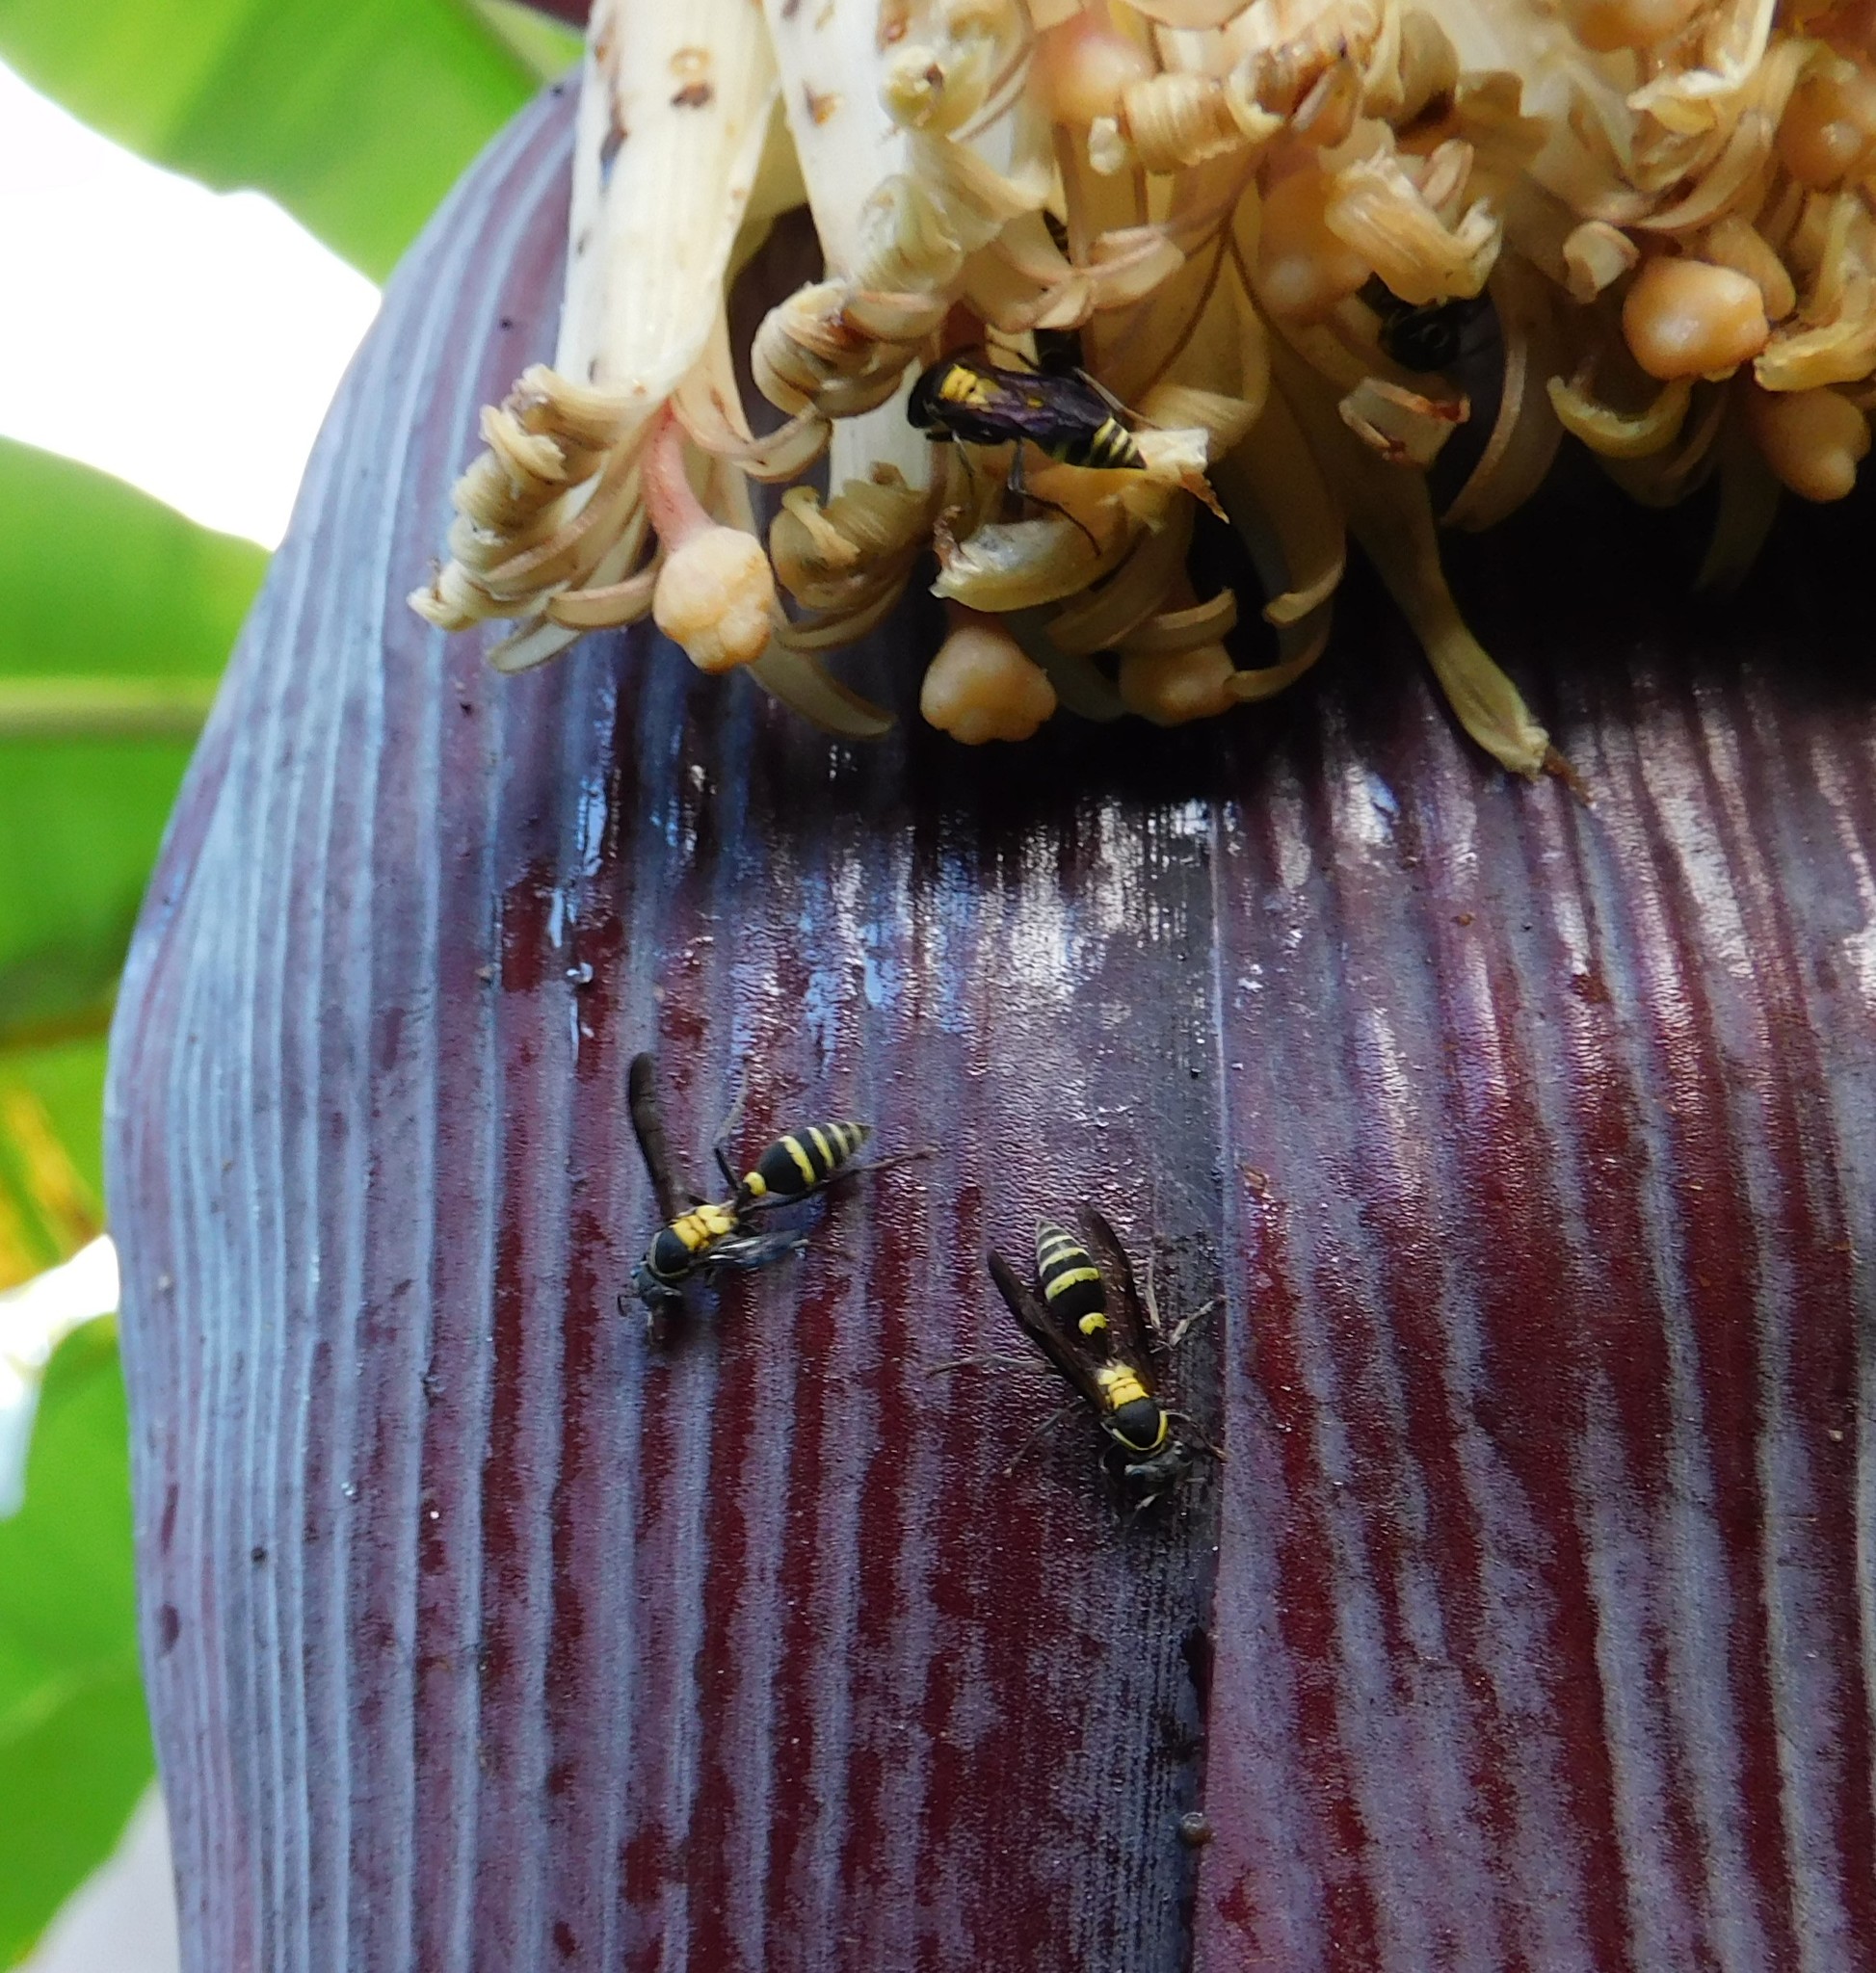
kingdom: Animalia
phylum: Arthropoda
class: Insecta
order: Hymenoptera
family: Eumenidae
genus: Polybia
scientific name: Polybia occidentalis
